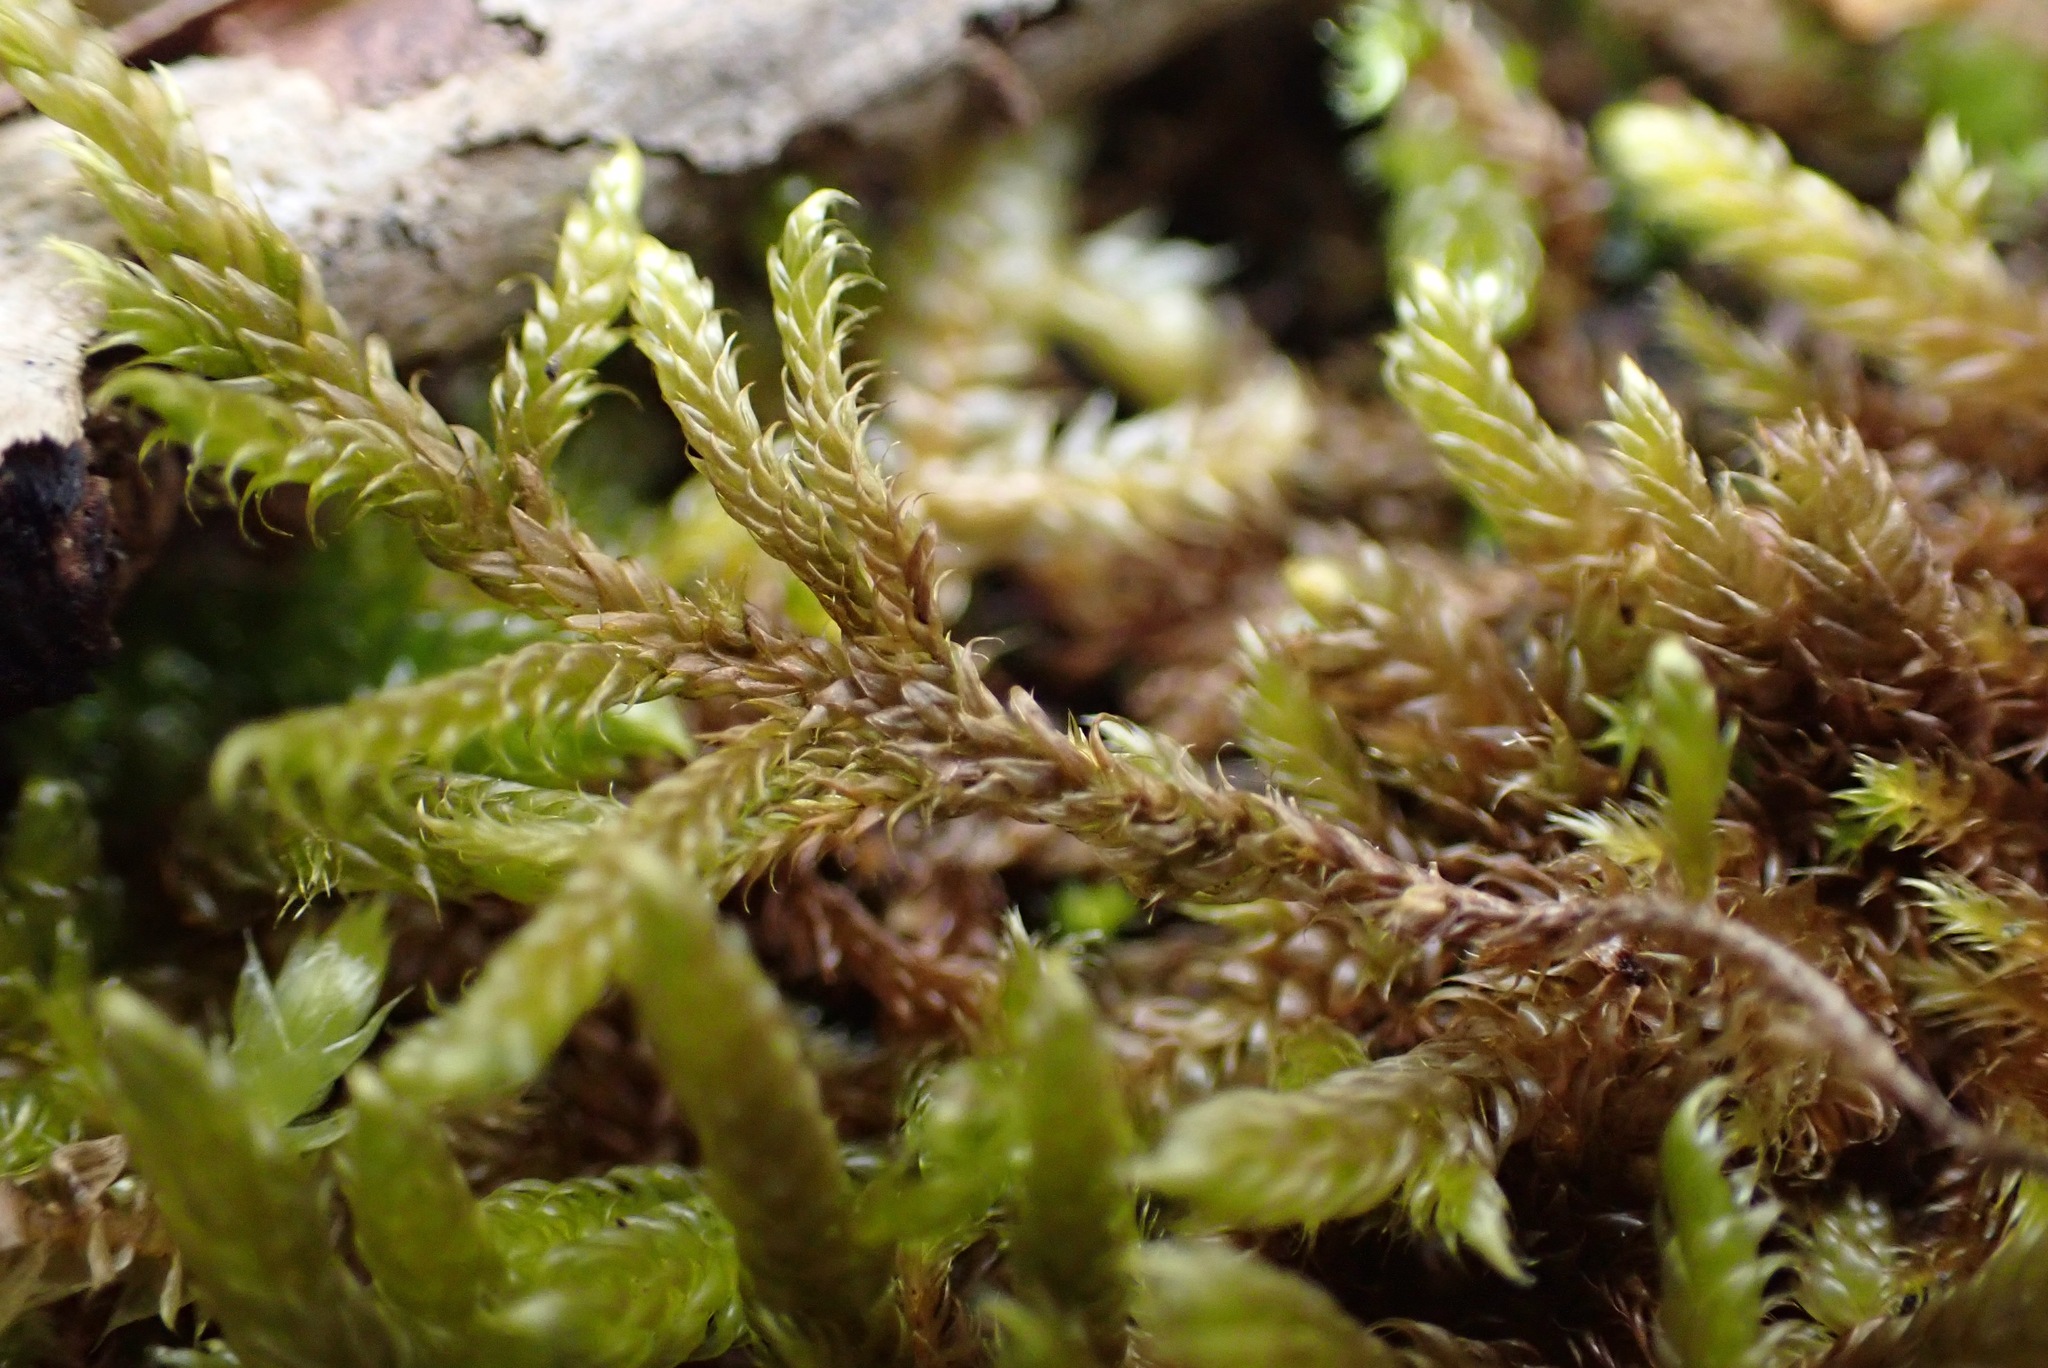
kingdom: Plantae
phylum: Bryophyta
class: Bryopsida
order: Hypnales
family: Hypnaceae
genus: Hypnum
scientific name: Hypnum cupressiforme
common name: Cypress-leaved plait-moss
